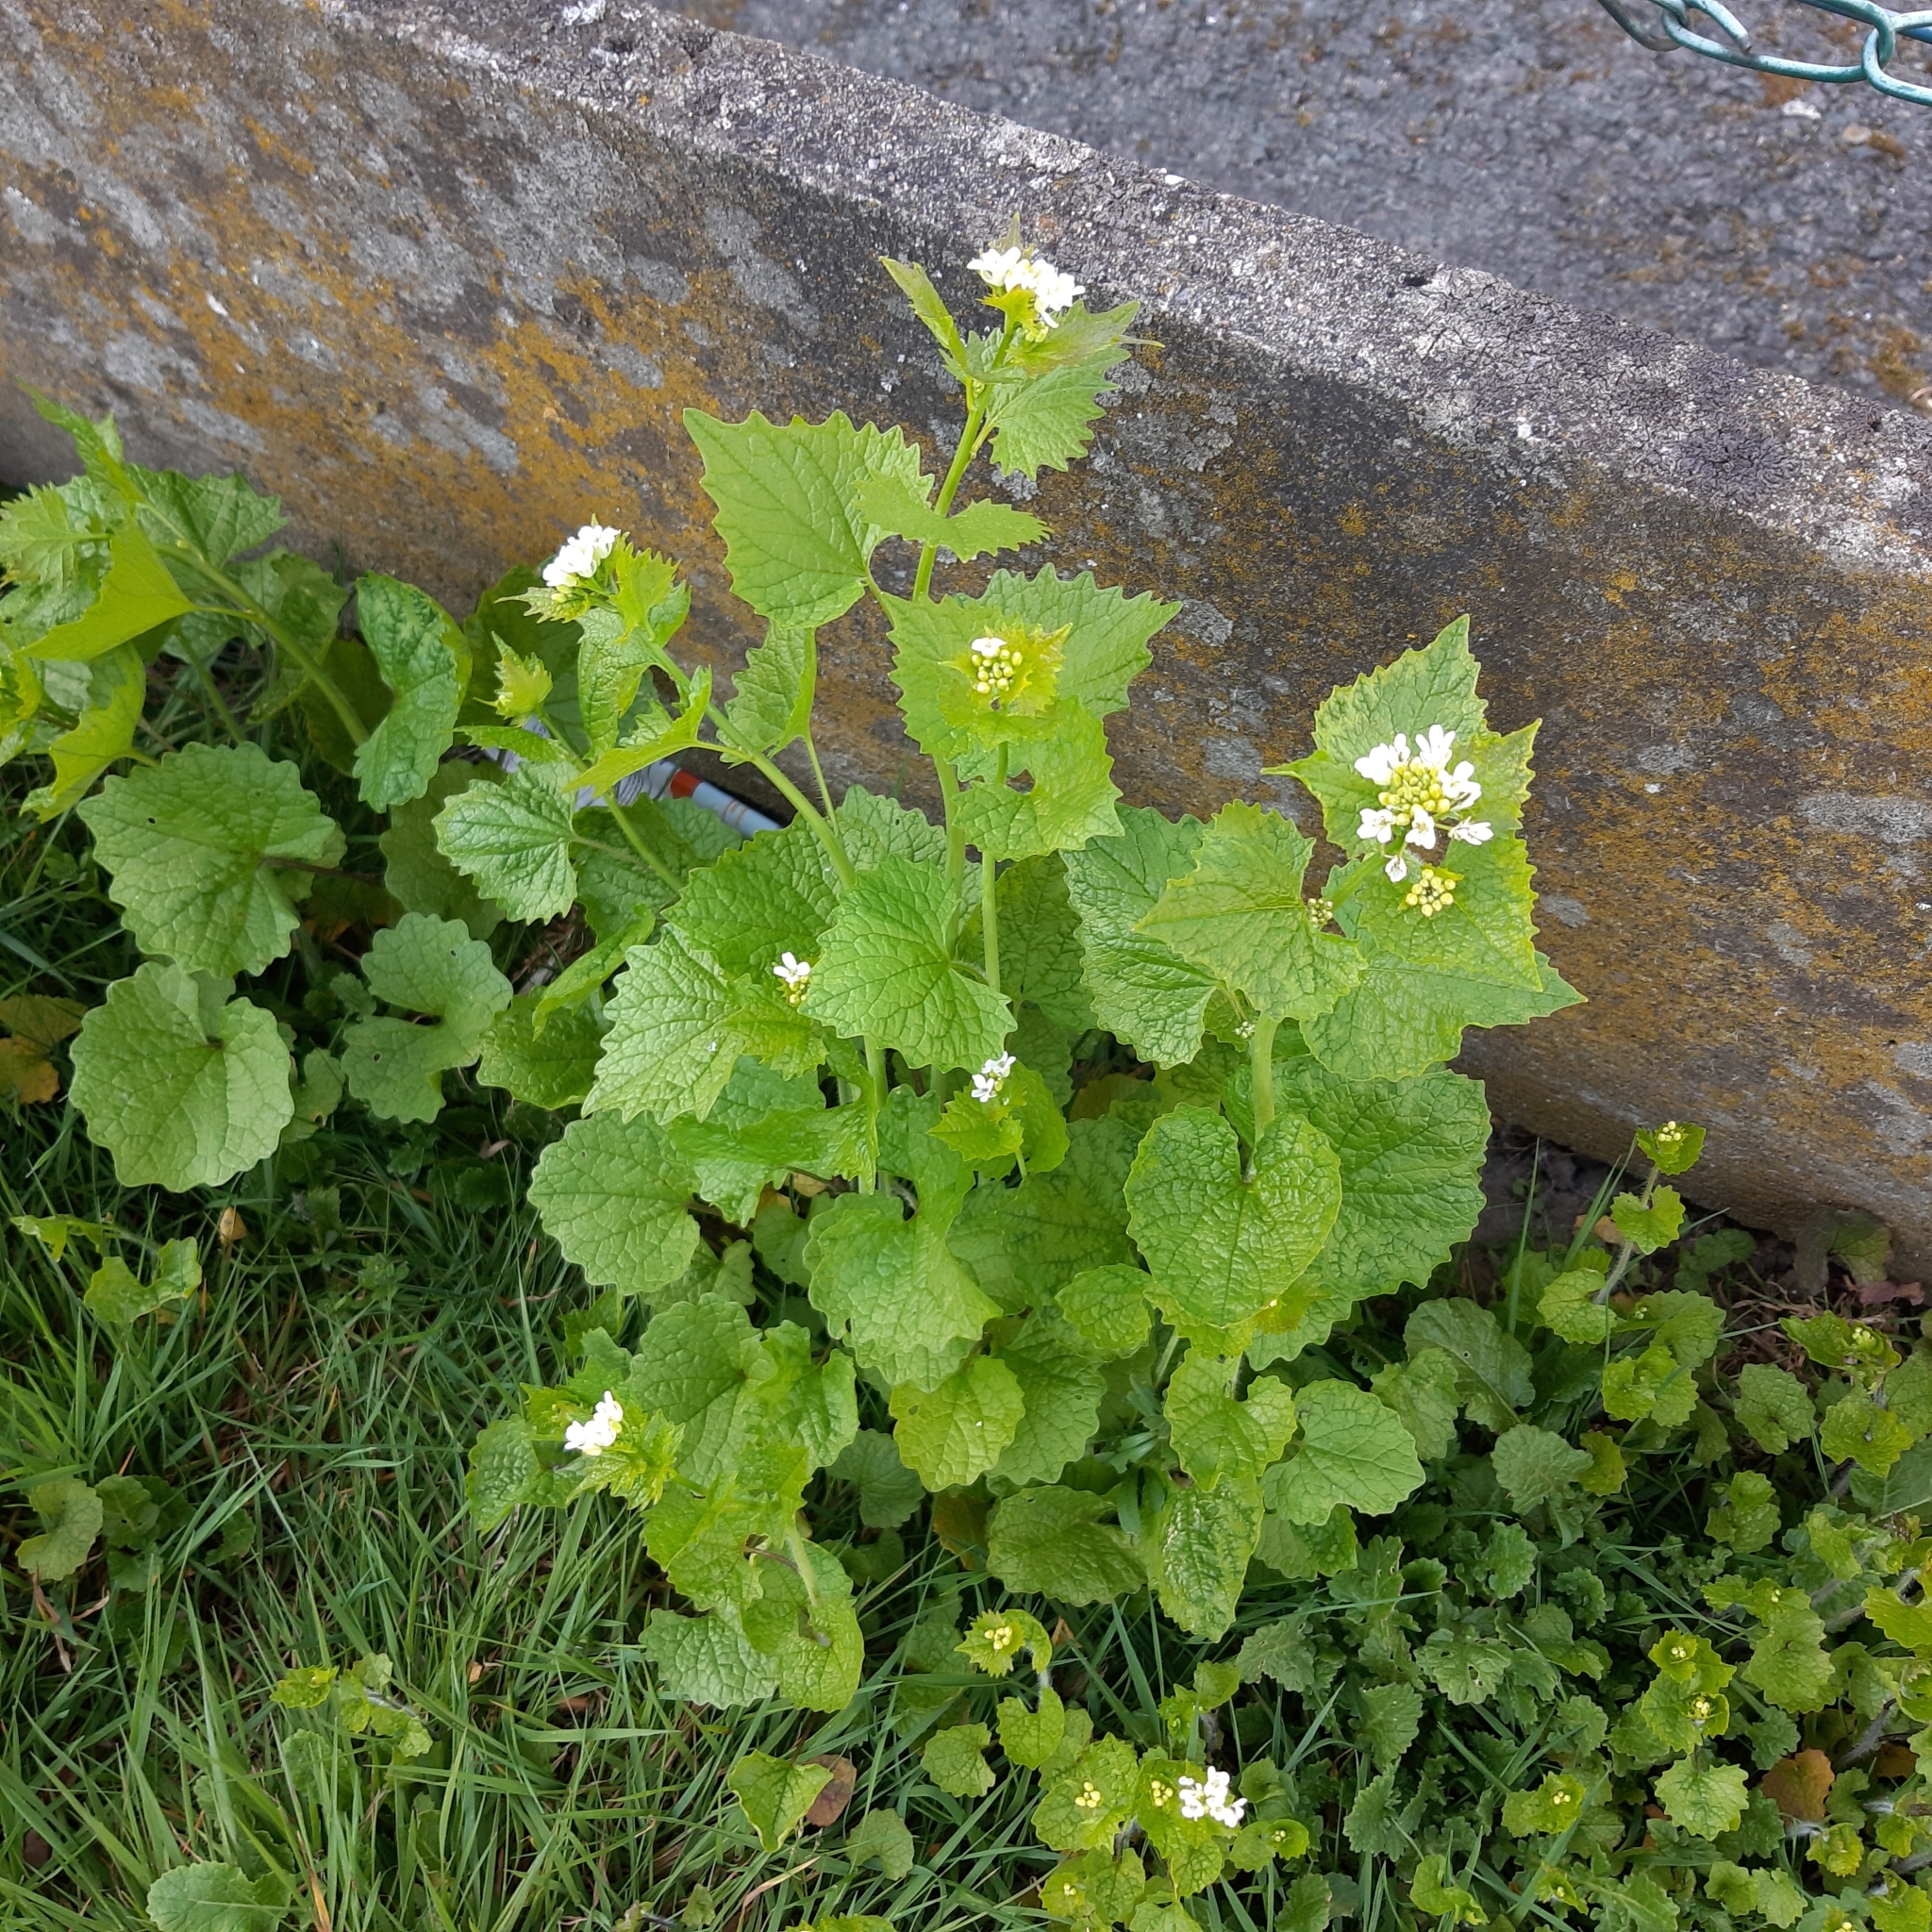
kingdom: Plantae
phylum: Tracheophyta
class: Magnoliopsida
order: Brassicales
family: Brassicaceae
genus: Alliaria
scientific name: Alliaria petiolata
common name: Garlic mustard
